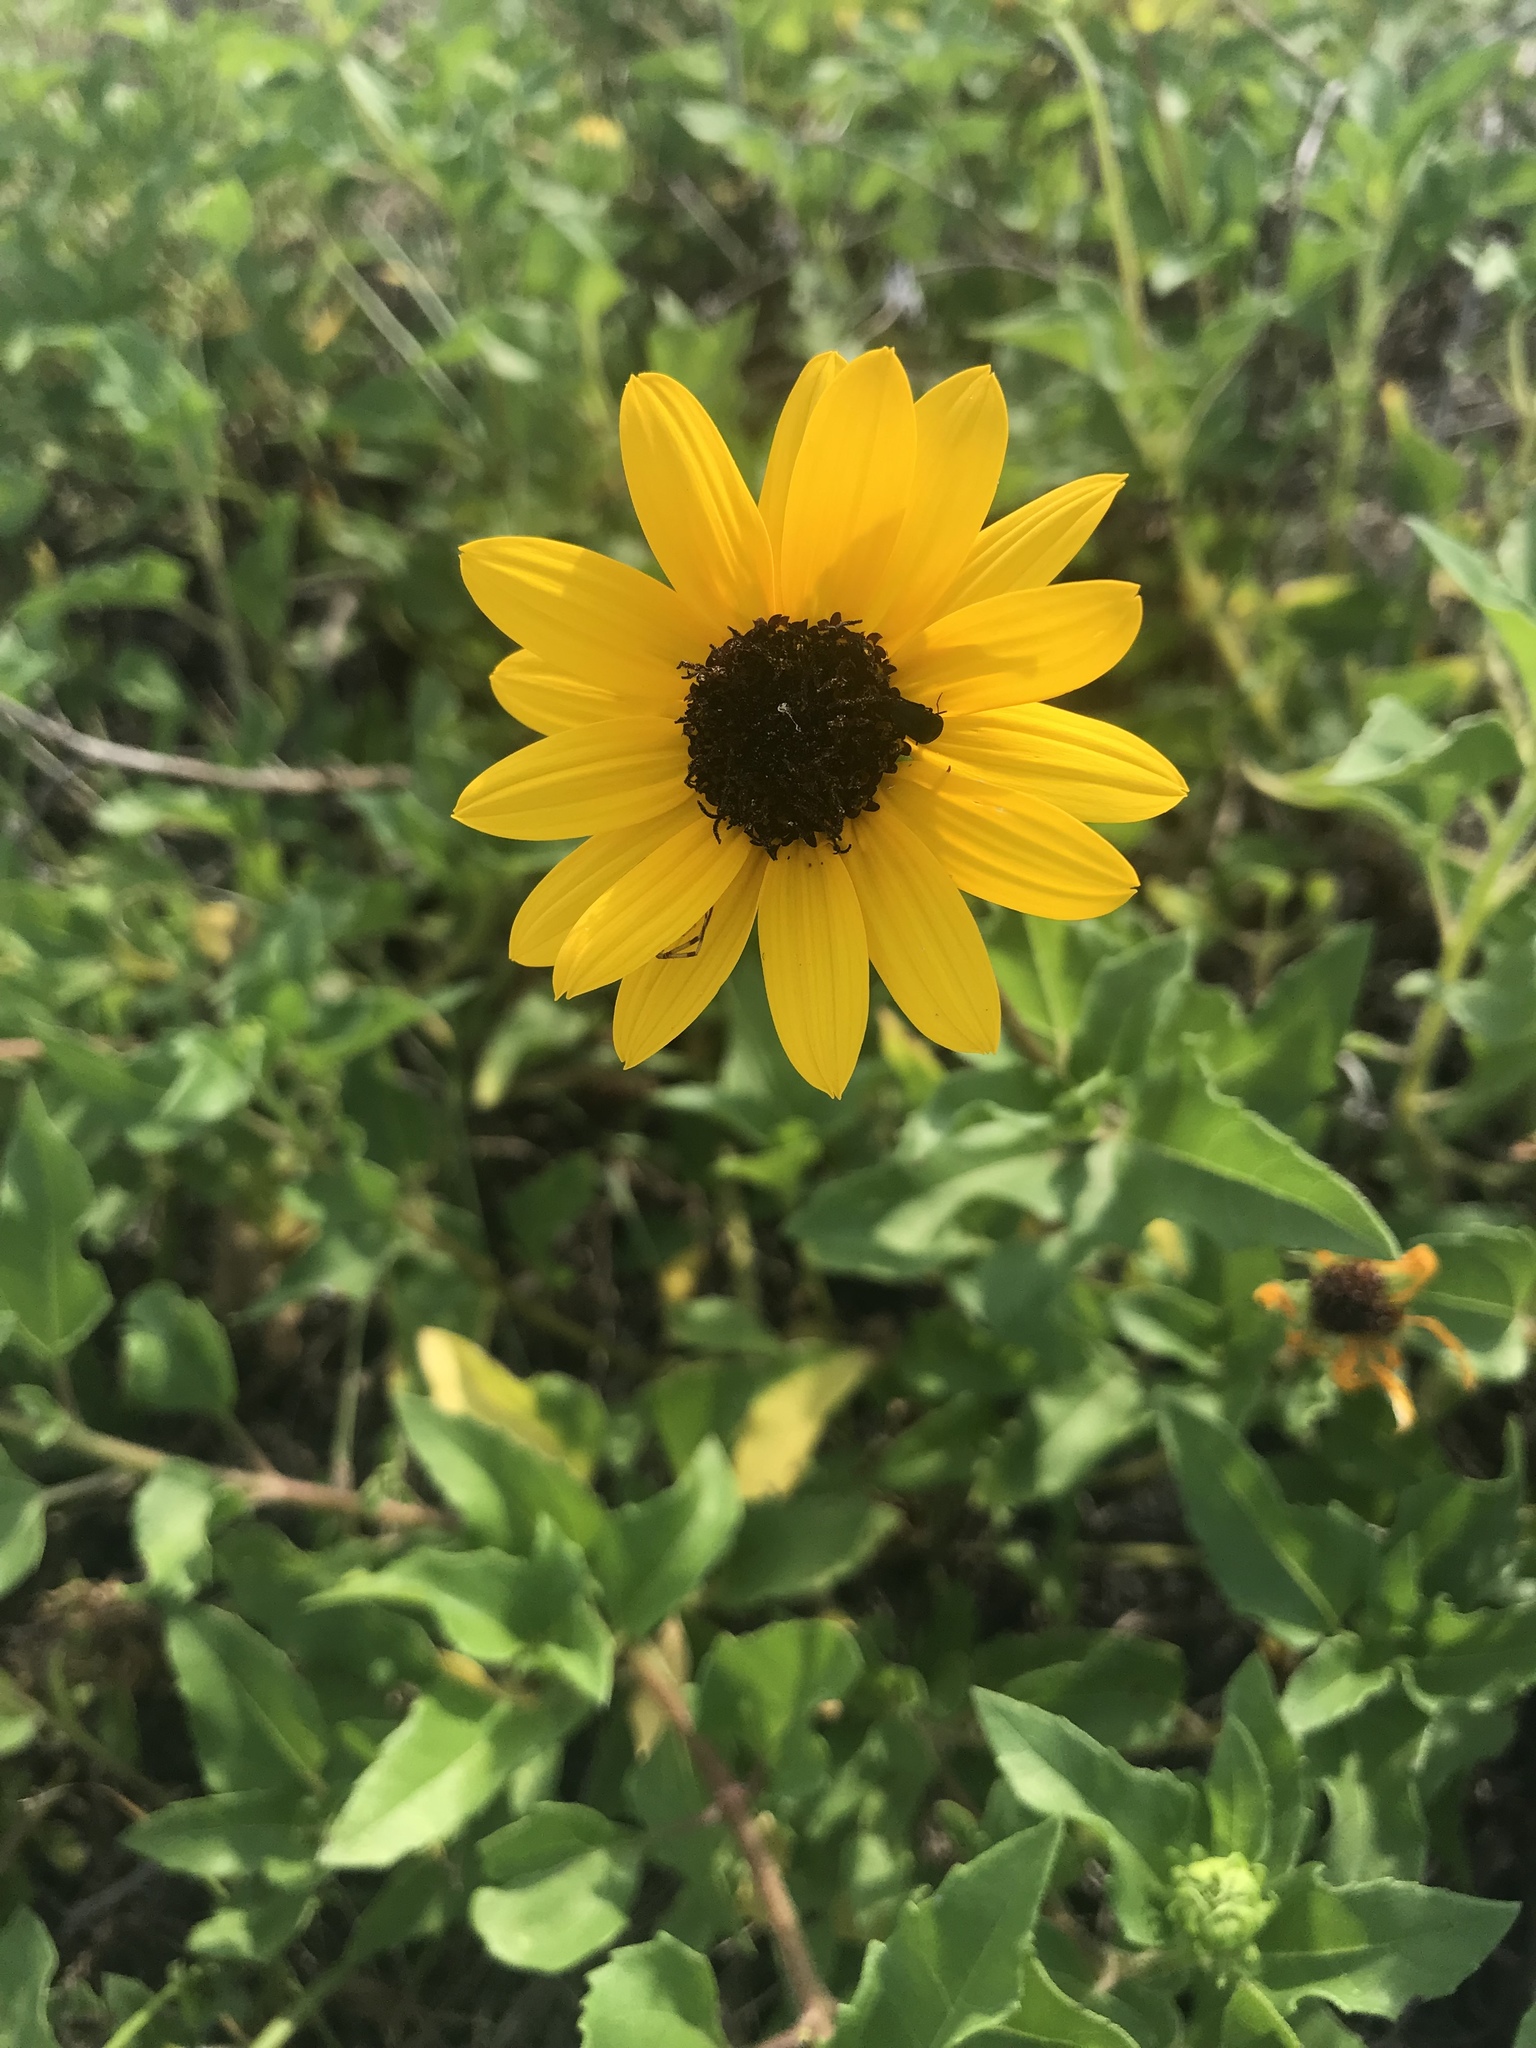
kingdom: Plantae
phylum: Tracheophyta
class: Magnoliopsida
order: Asterales
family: Asteraceae
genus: Helianthus
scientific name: Helianthus debilis
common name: Weak sunflower
